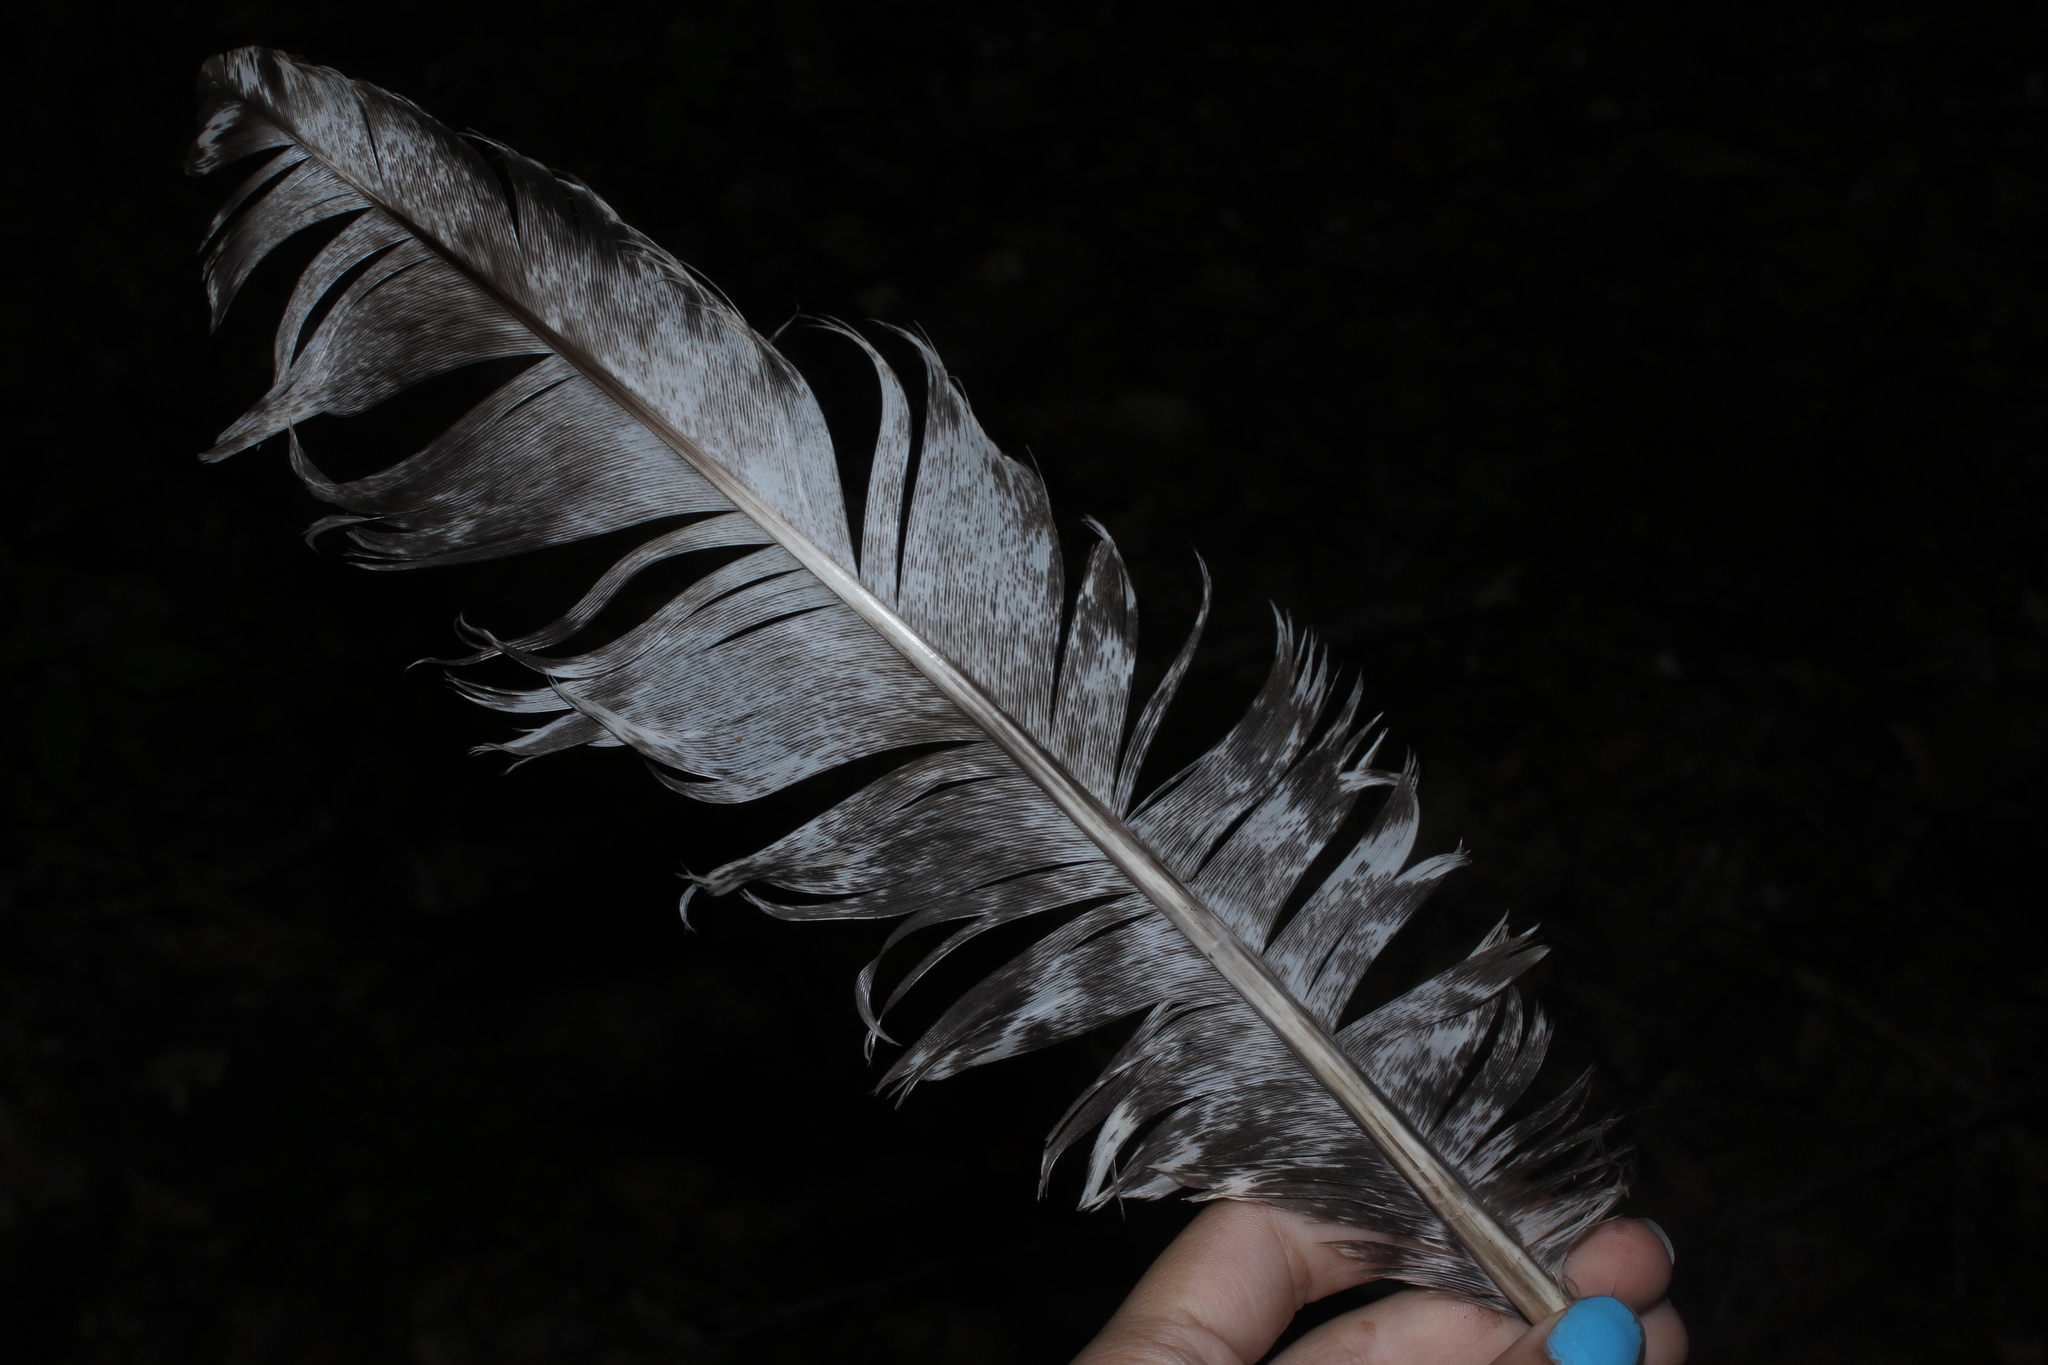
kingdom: Animalia
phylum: Chordata
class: Aves
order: Galliformes
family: Phasianidae
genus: Meleagris
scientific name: Meleagris gallopavo
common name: Wild turkey
